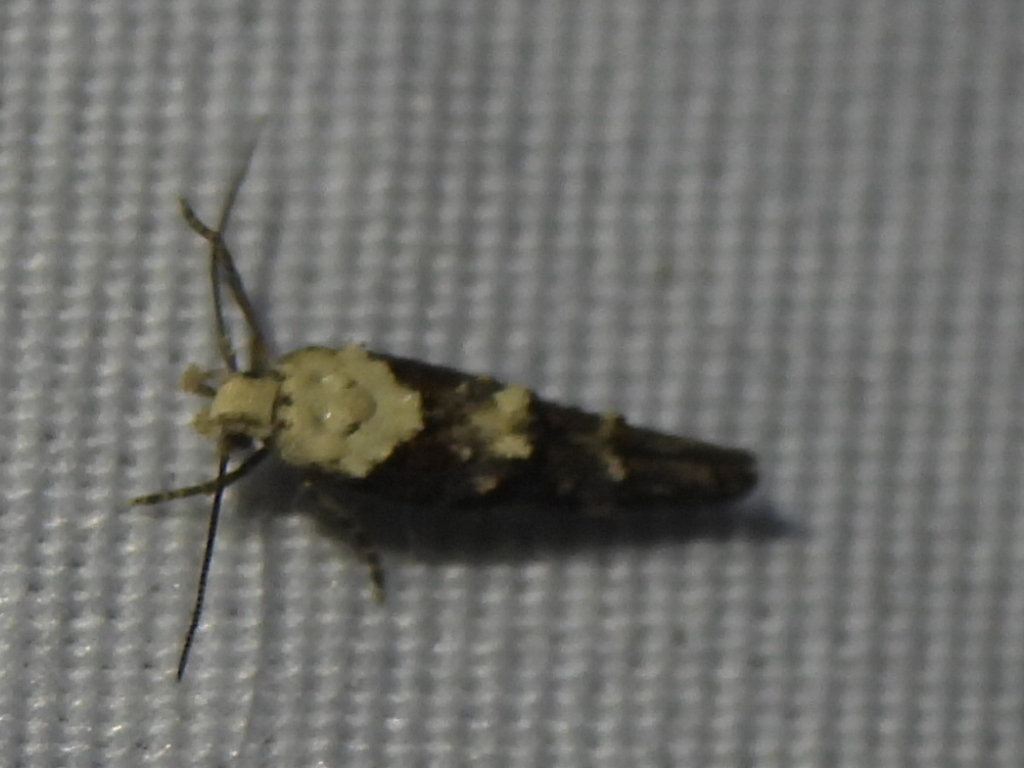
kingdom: Animalia
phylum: Arthropoda
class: Insecta
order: Lepidoptera
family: Momphidae
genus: Mompha
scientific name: Mompha albocapitella
